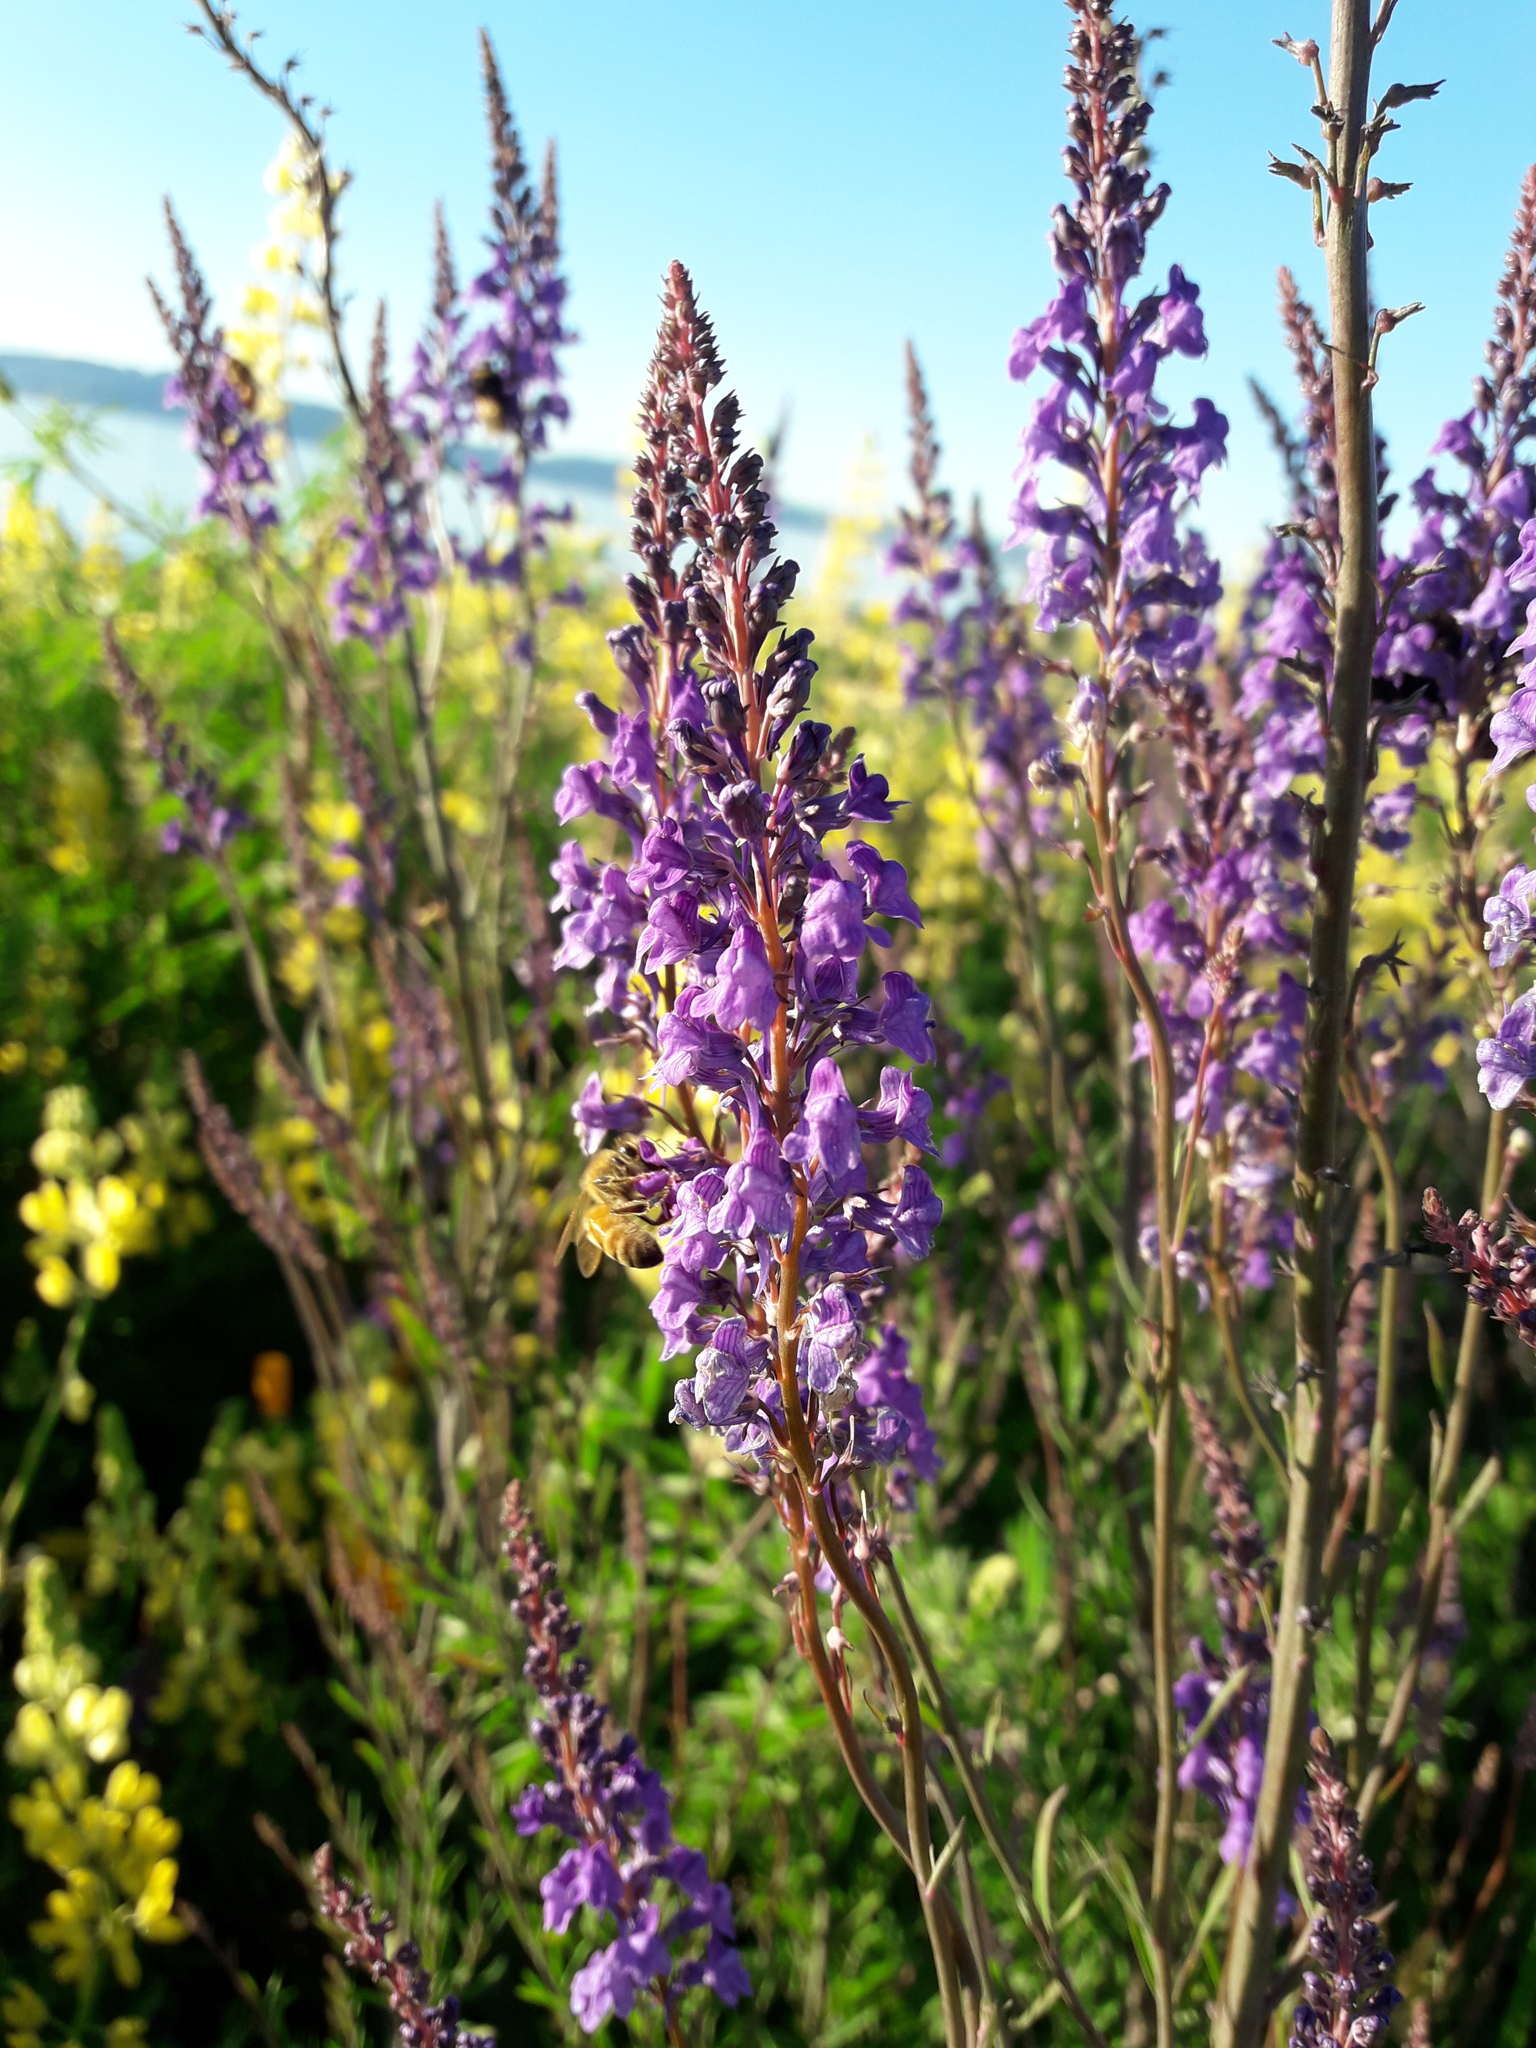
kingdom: Plantae
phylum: Tracheophyta
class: Magnoliopsida
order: Lamiales
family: Plantaginaceae
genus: Linaria
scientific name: Linaria purpurea
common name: Purple toadflax
